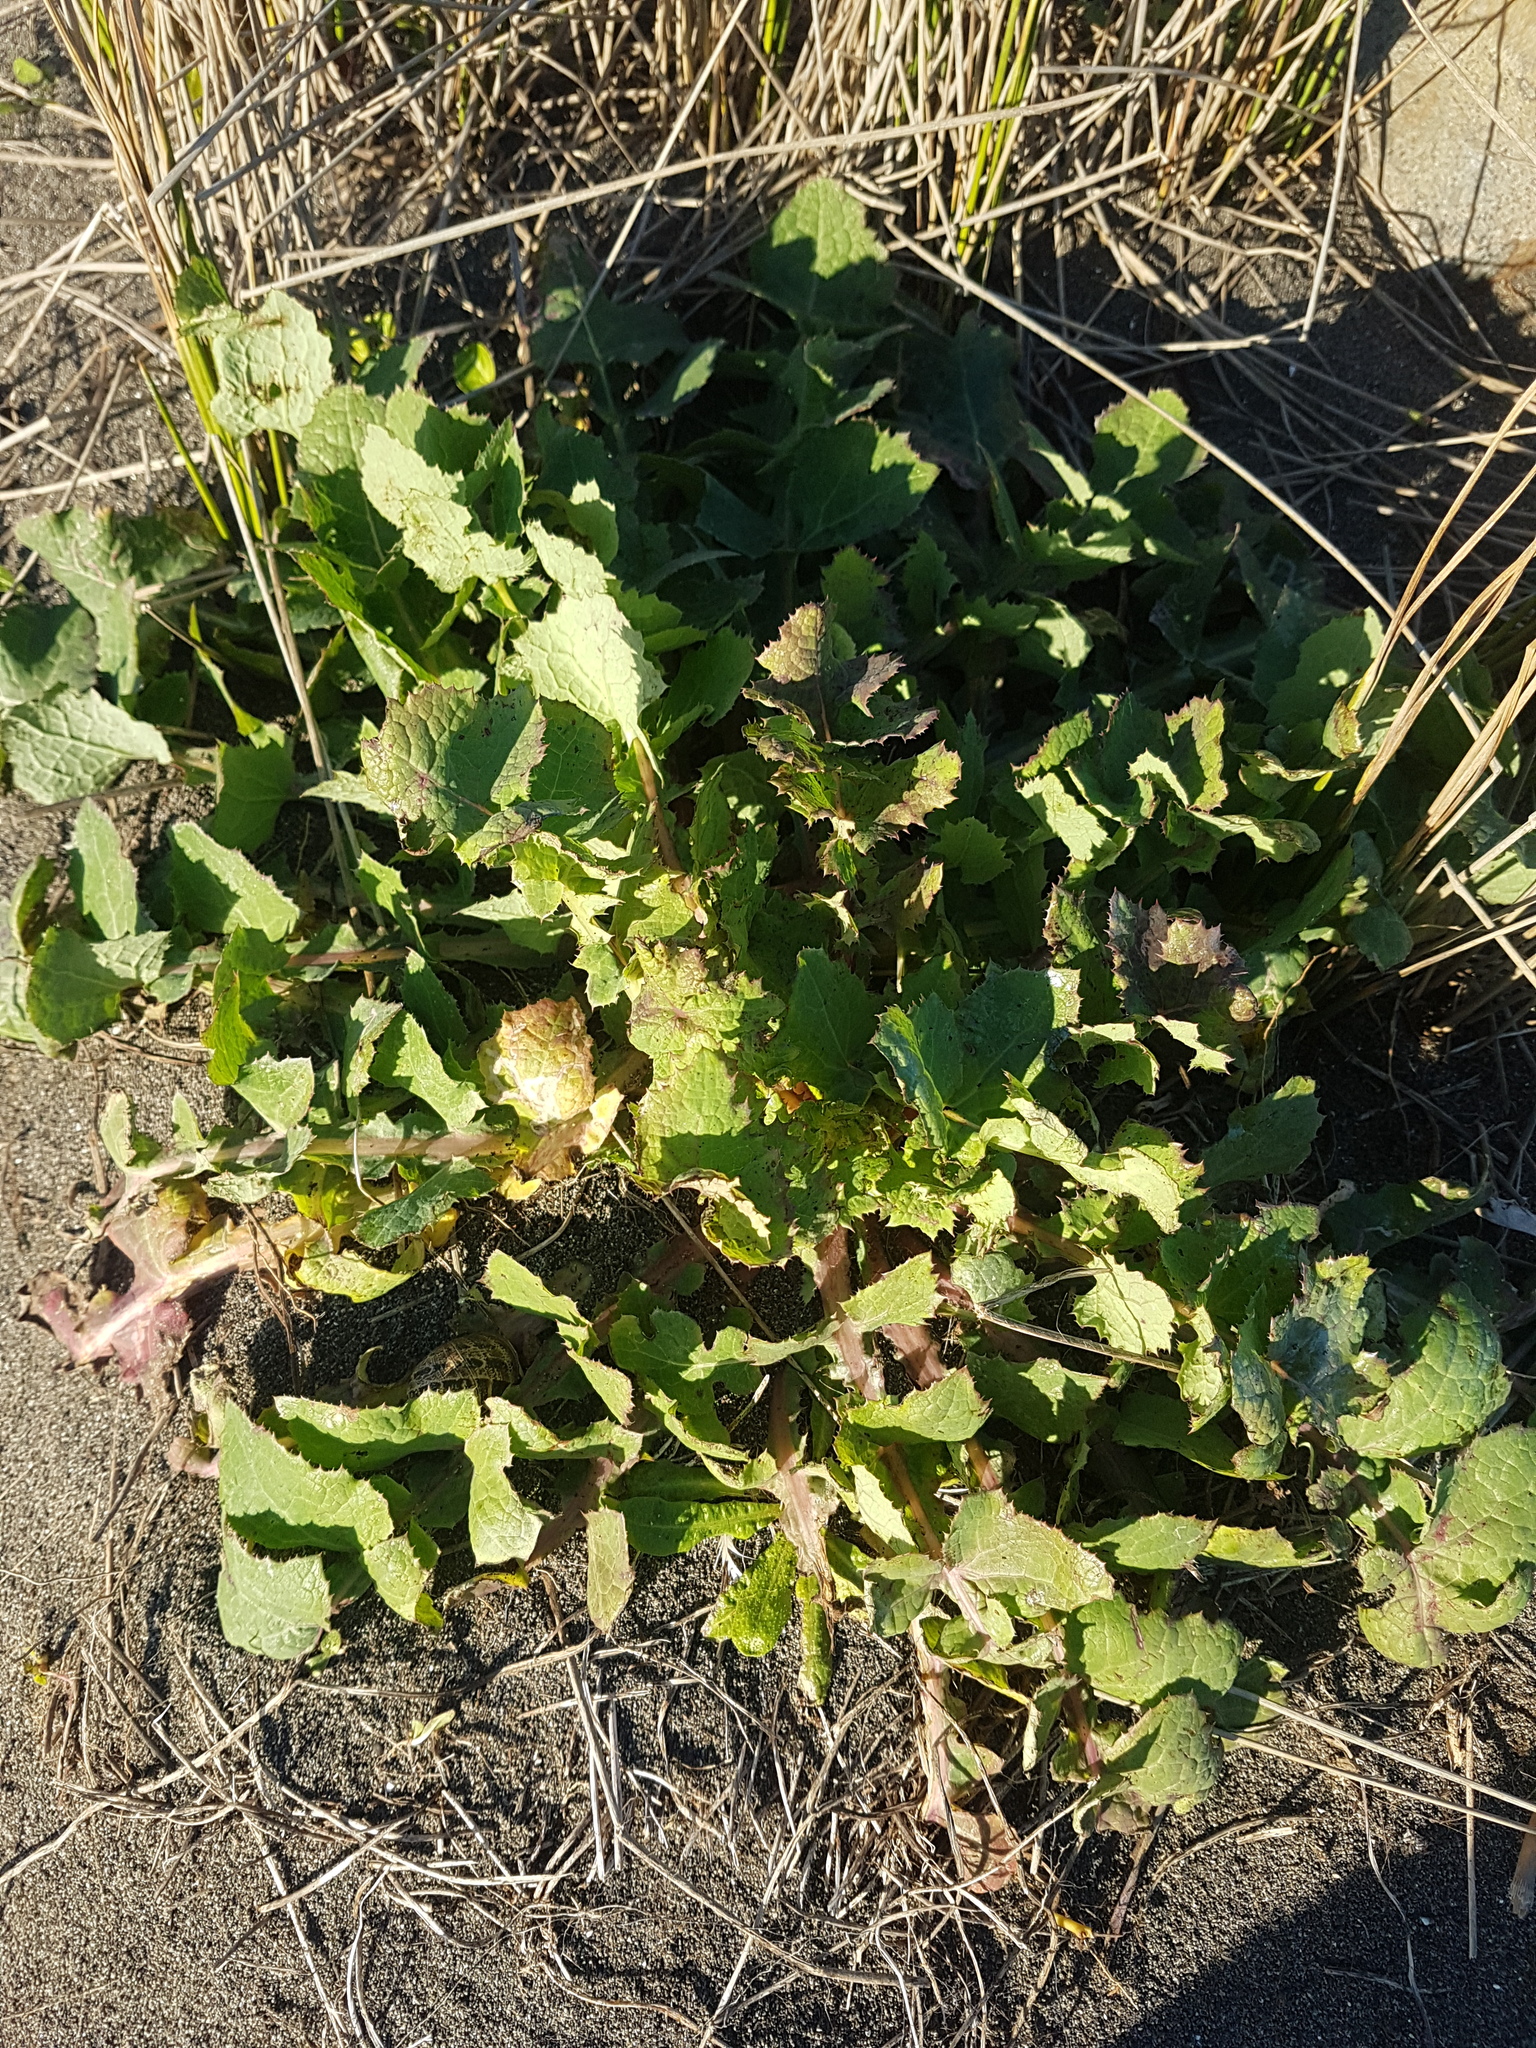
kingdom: Plantae
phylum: Tracheophyta
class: Magnoliopsida
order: Asterales
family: Asteraceae
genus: Sonchus
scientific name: Sonchus oleraceus
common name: Common sowthistle
